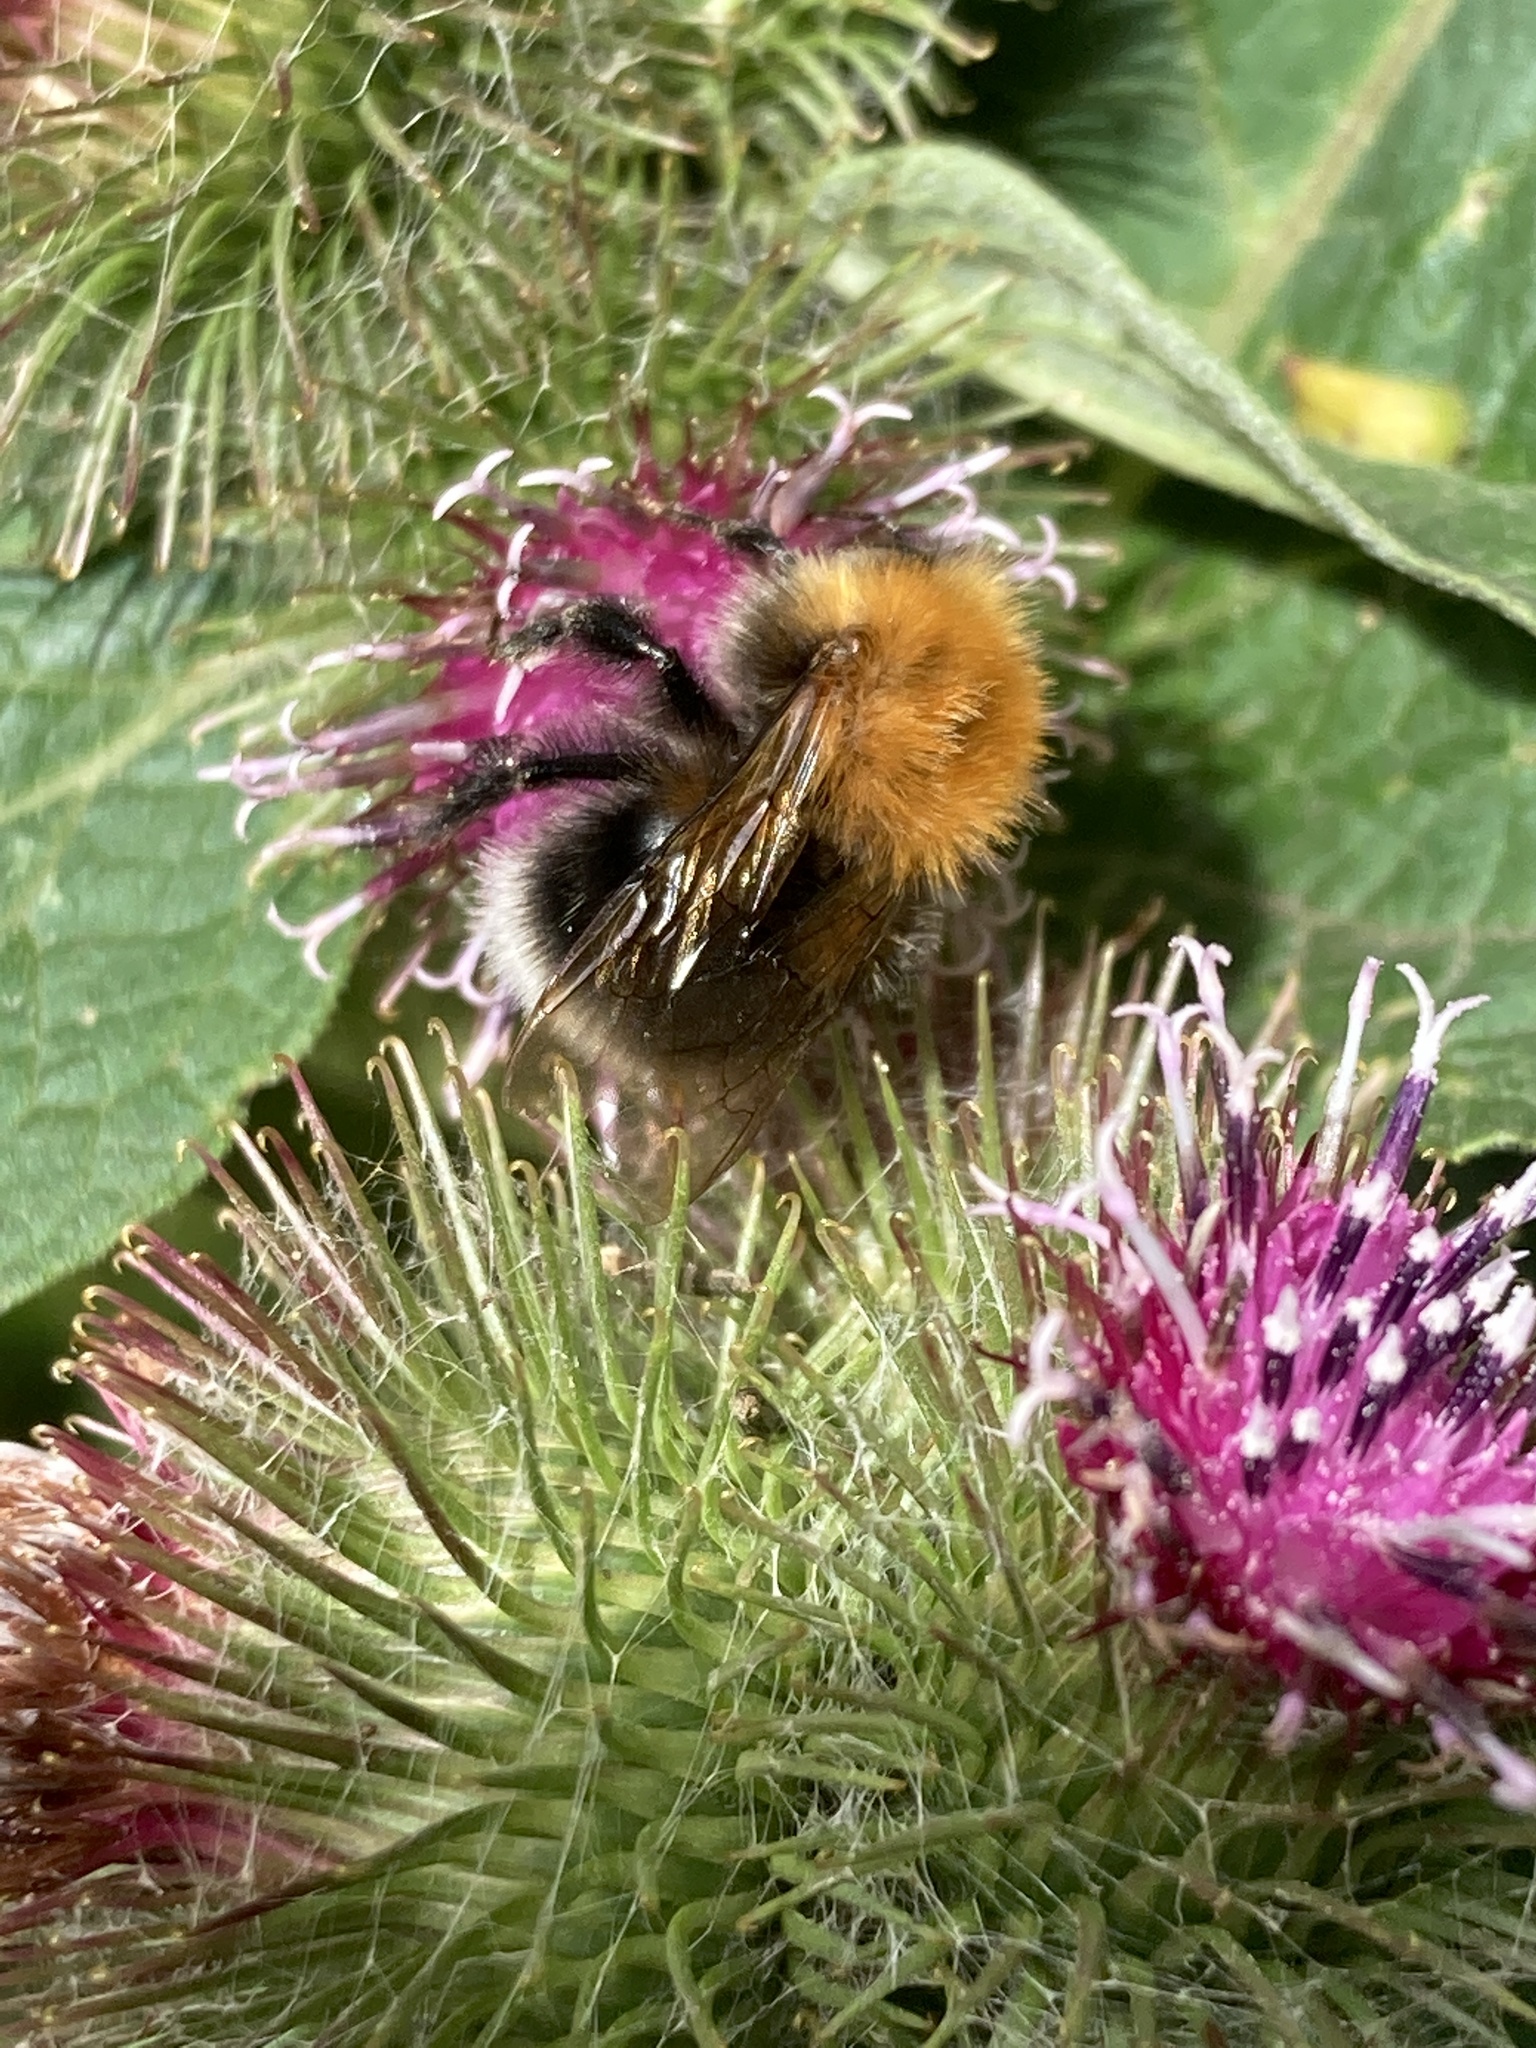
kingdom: Animalia
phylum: Arthropoda
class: Insecta
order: Hymenoptera
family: Apidae
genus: Bombus
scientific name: Bombus hypnorum
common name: New garden bumblebee
